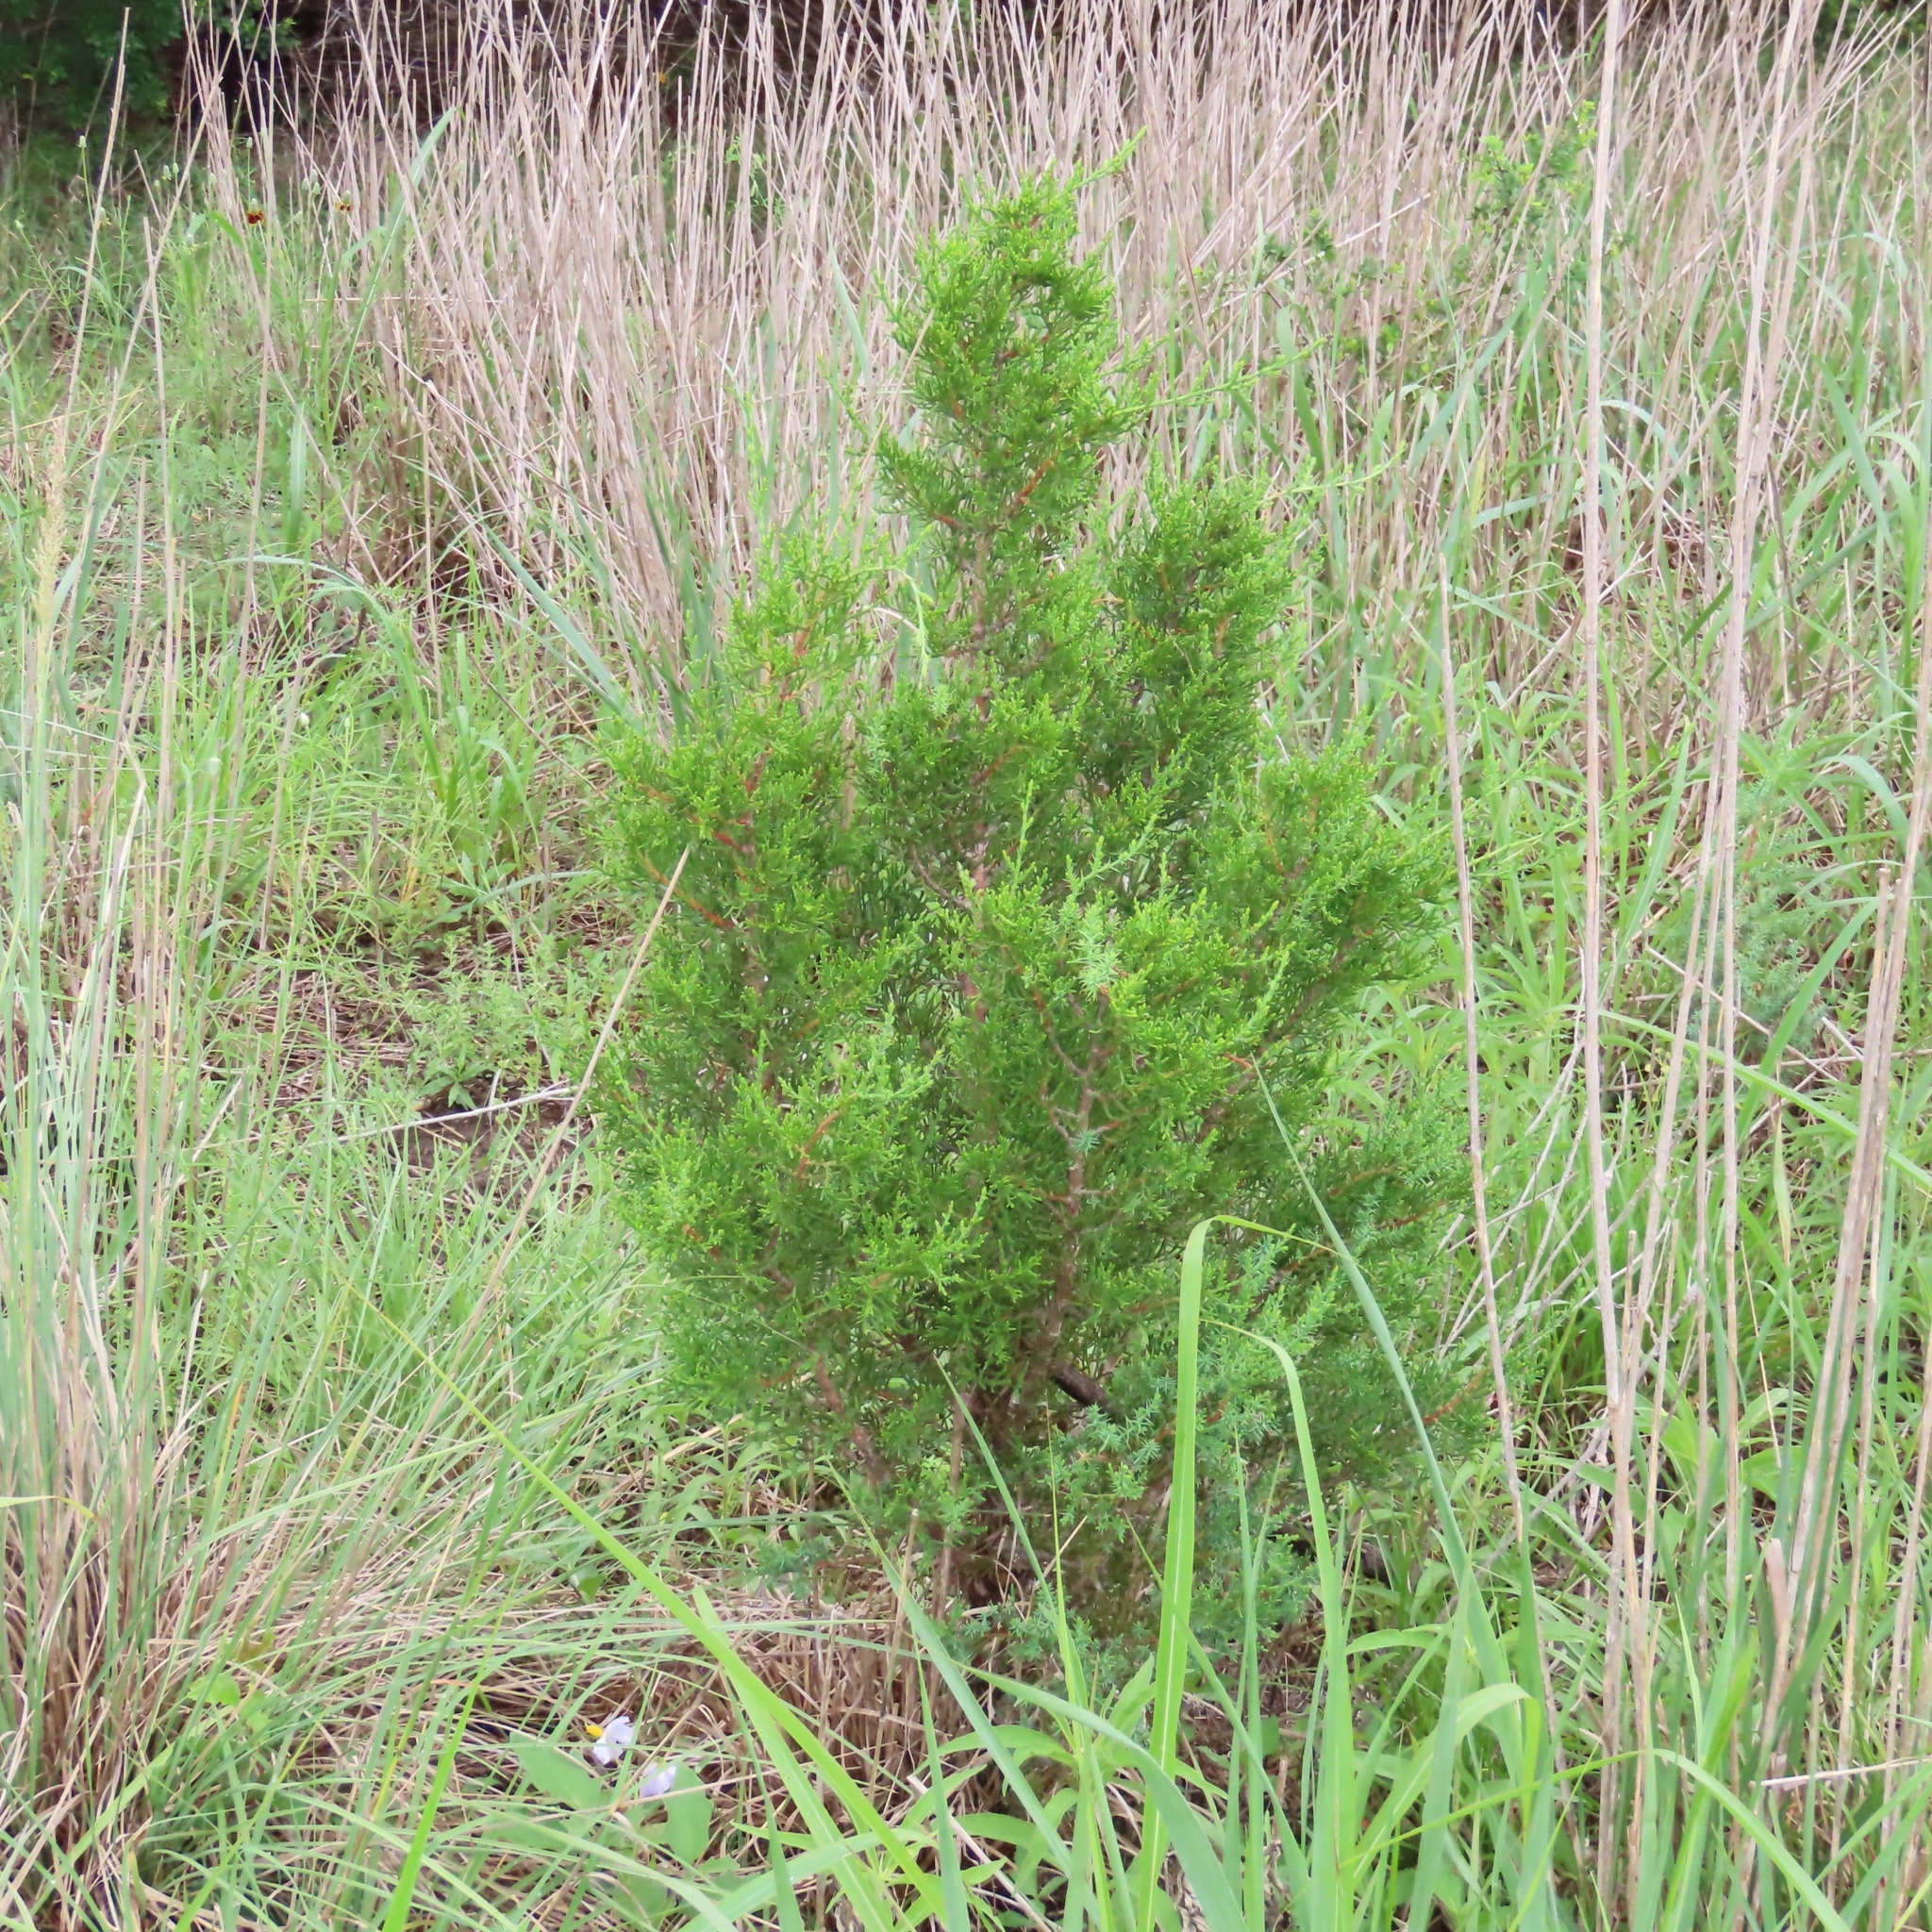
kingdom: Plantae
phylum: Tracheophyta
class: Pinopsida
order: Pinales
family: Cupressaceae
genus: Juniperus
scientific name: Juniperus ashei
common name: Mexican juniper
